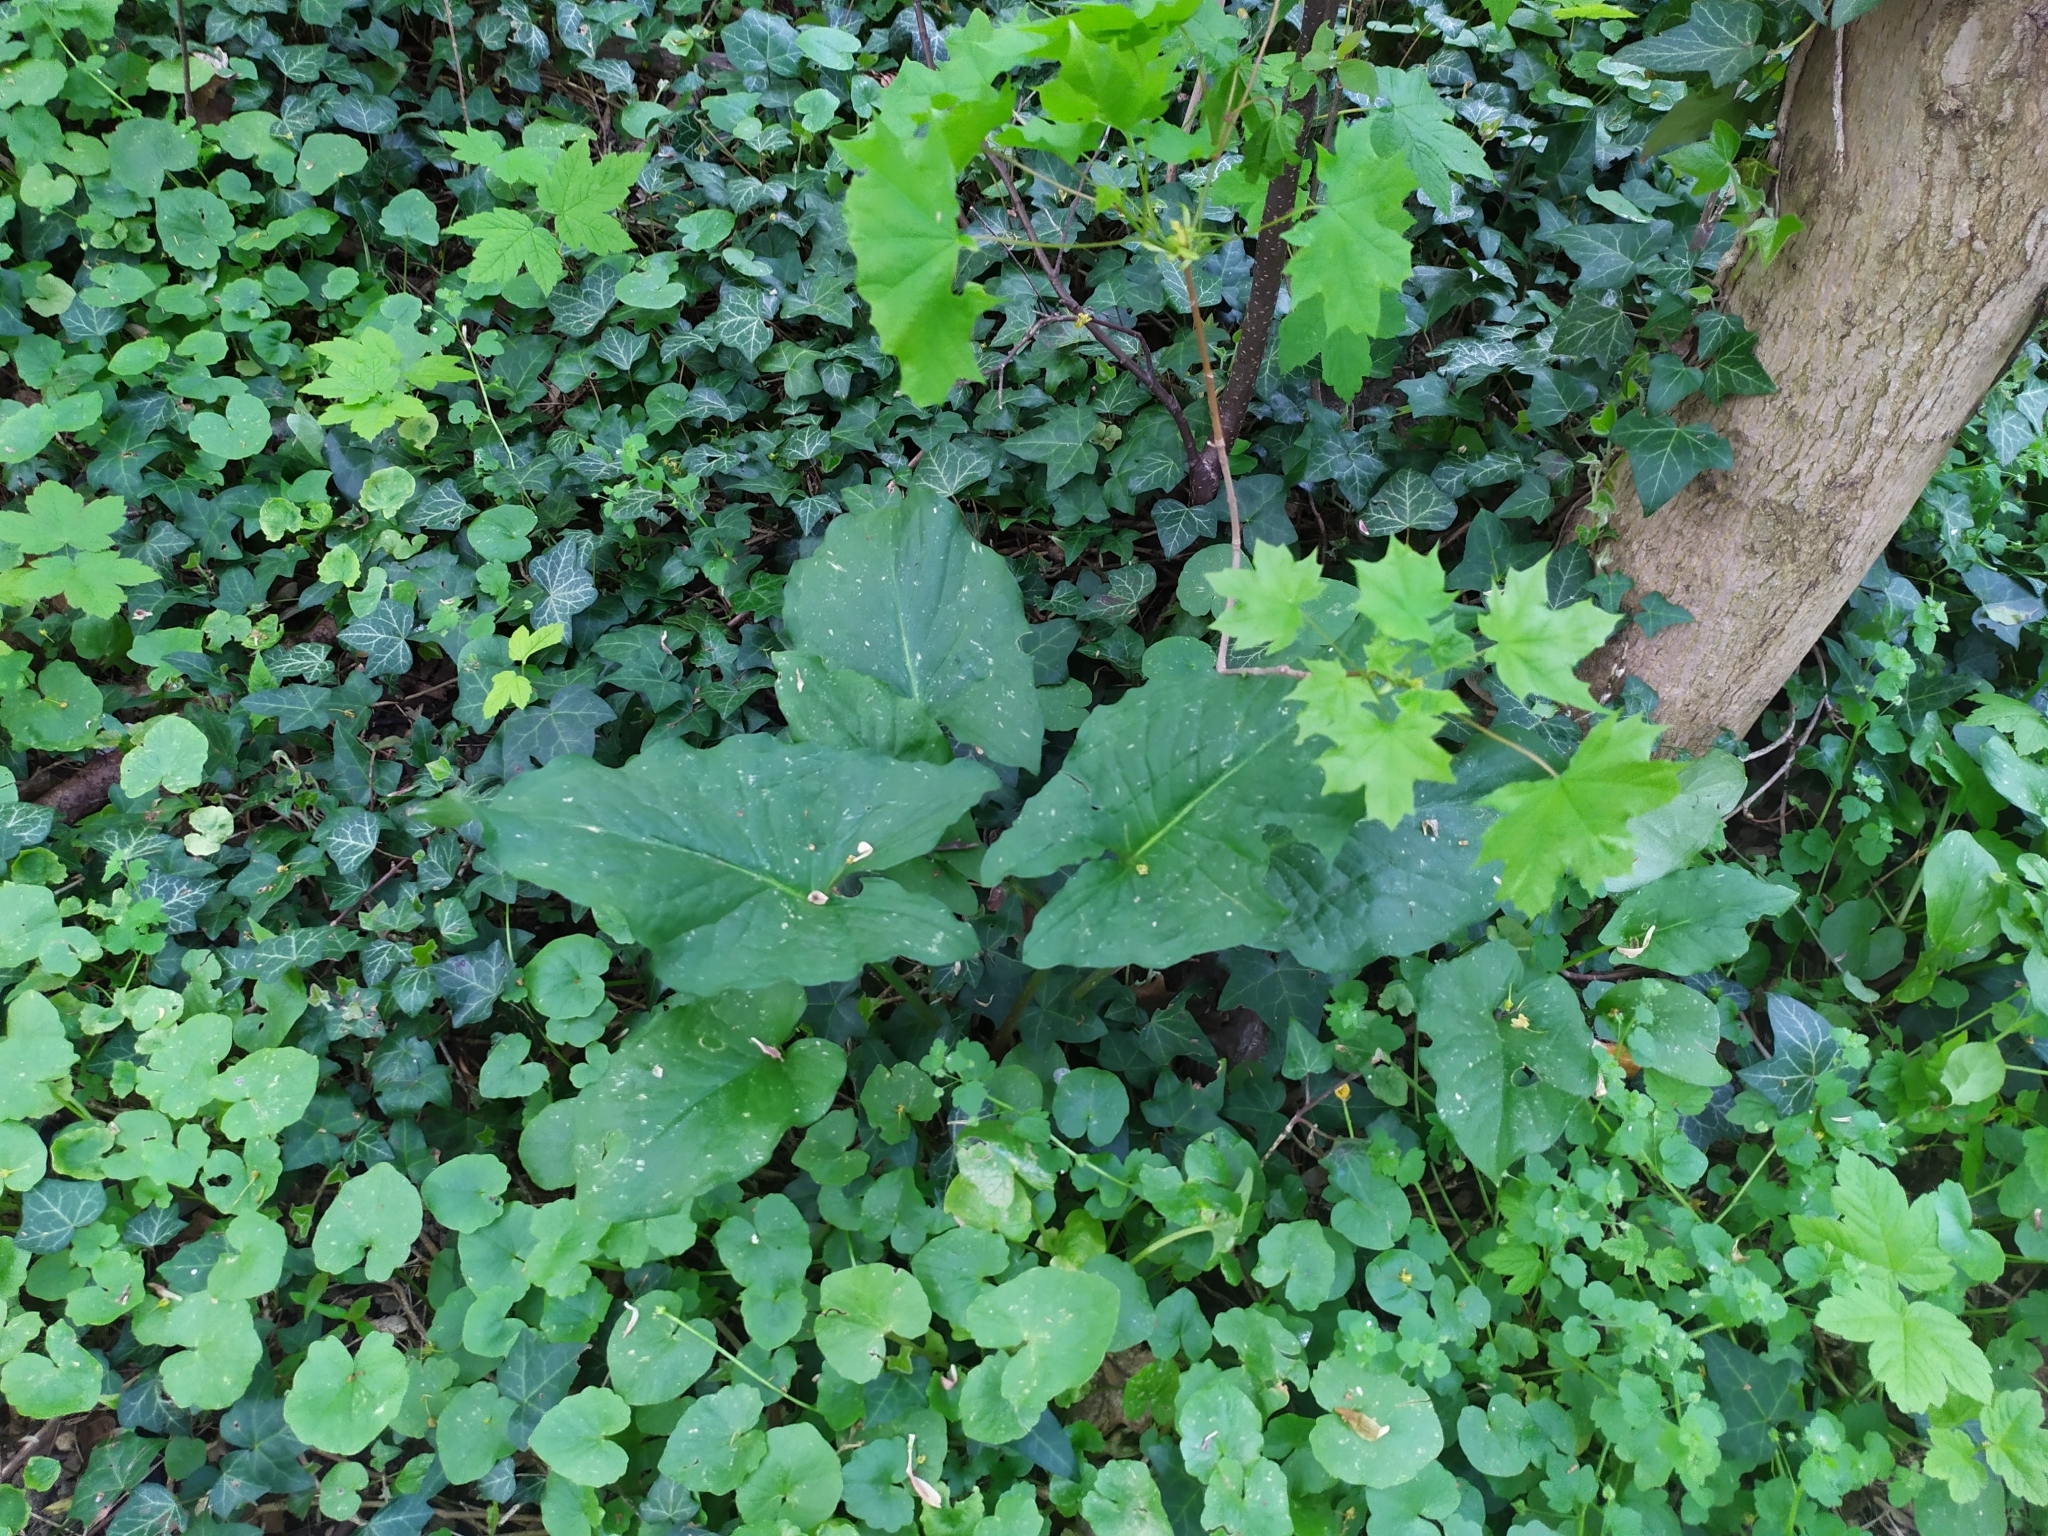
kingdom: Plantae
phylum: Tracheophyta
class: Liliopsida
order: Alismatales
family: Araceae
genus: Arum
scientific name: Arum cylindraceum
